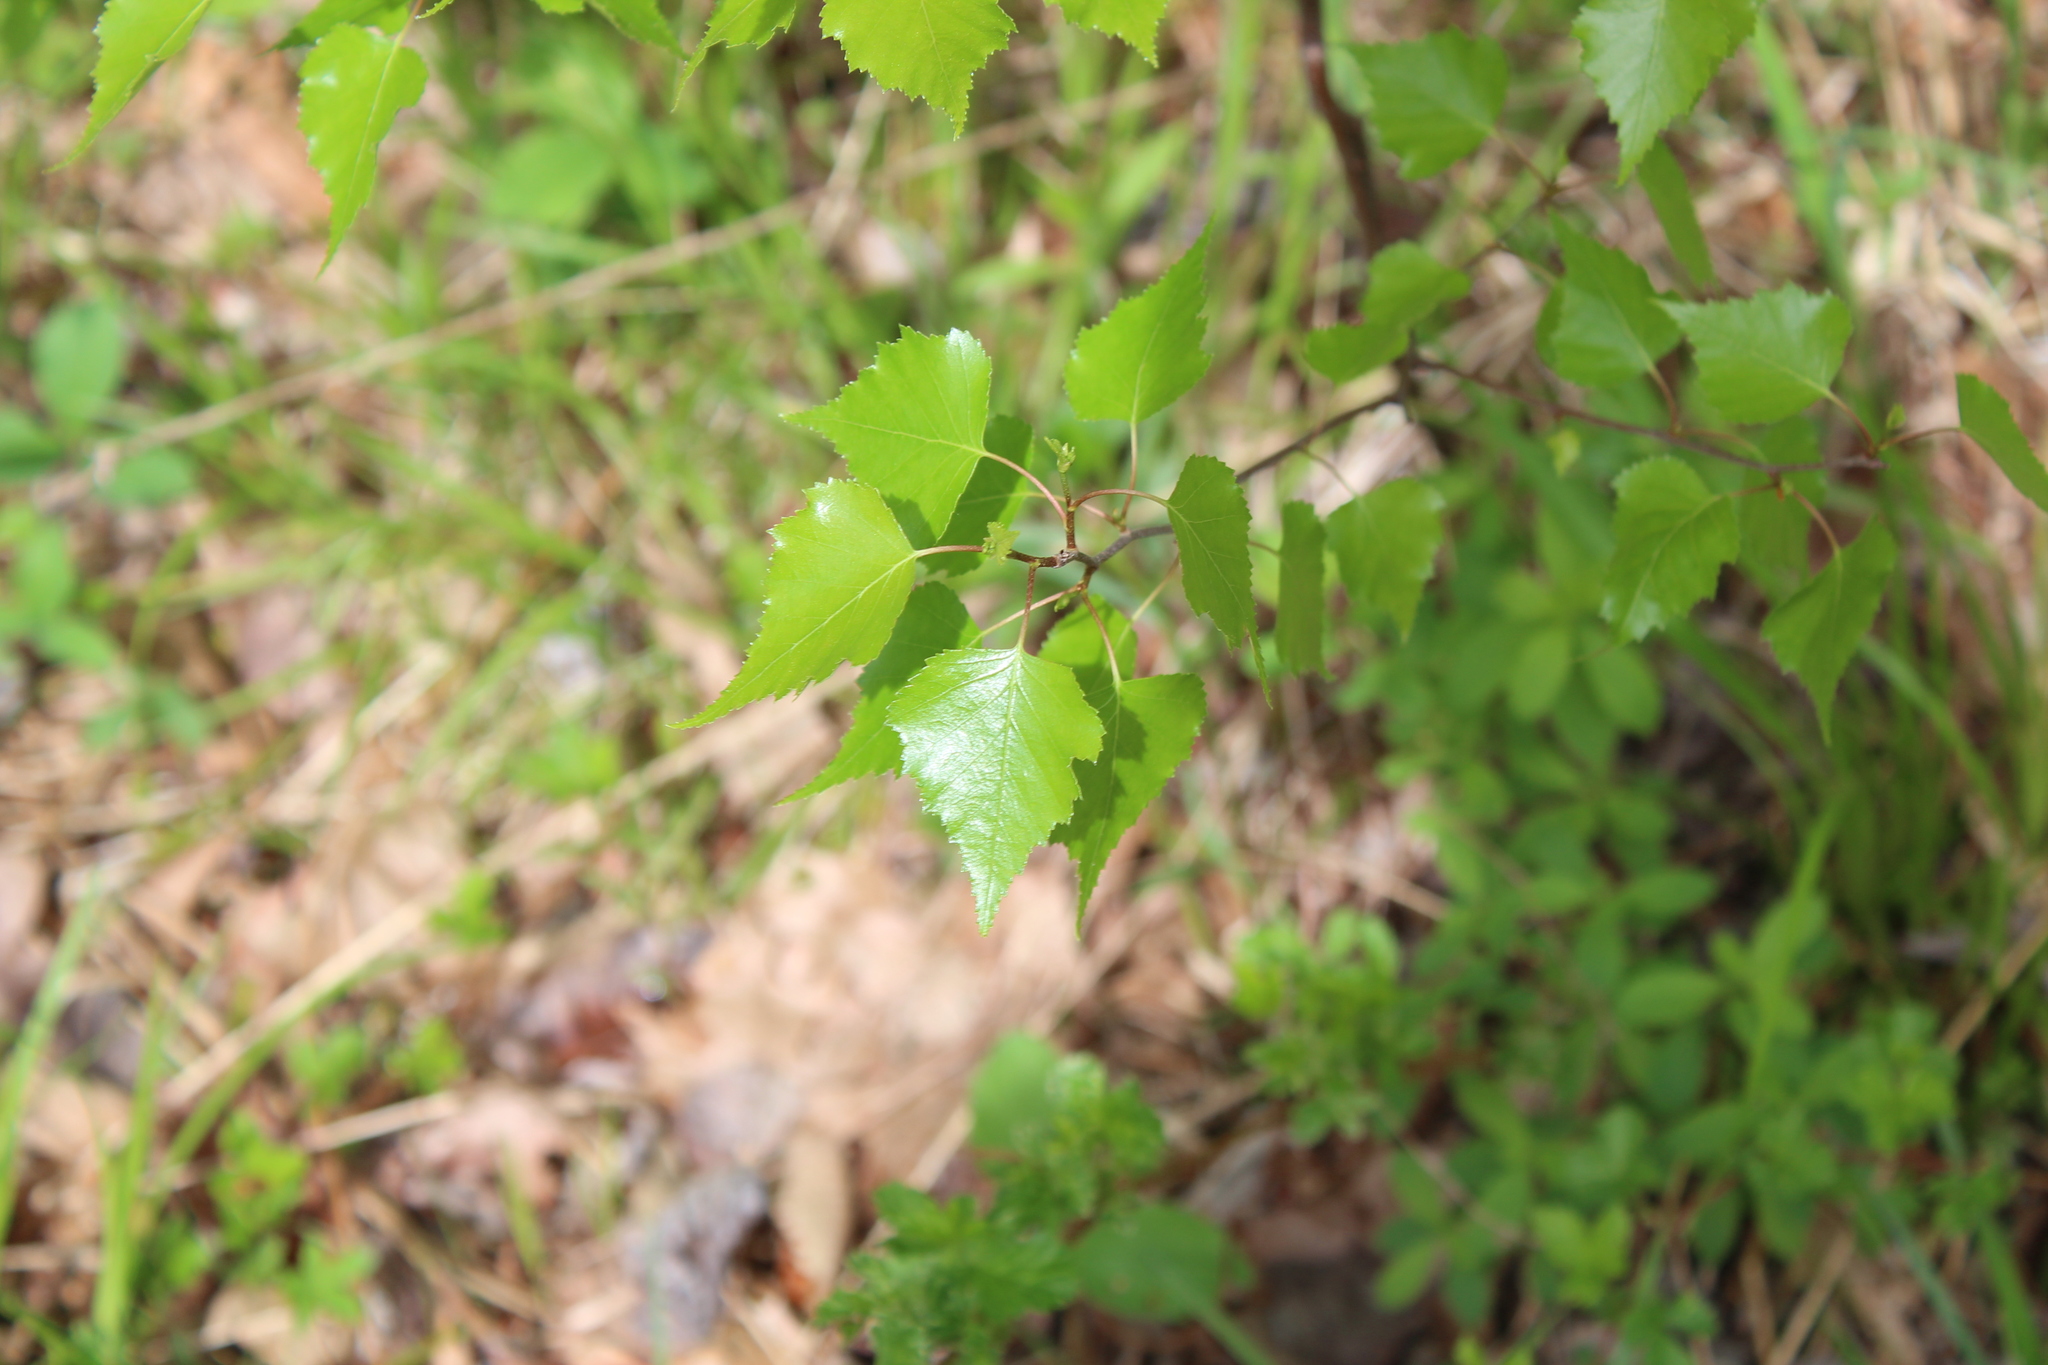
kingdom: Plantae
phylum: Tracheophyta
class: Magnoliopsida
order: Fagales
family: Betulaceae
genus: Betula
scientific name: Betula populifolia
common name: Fire birch
